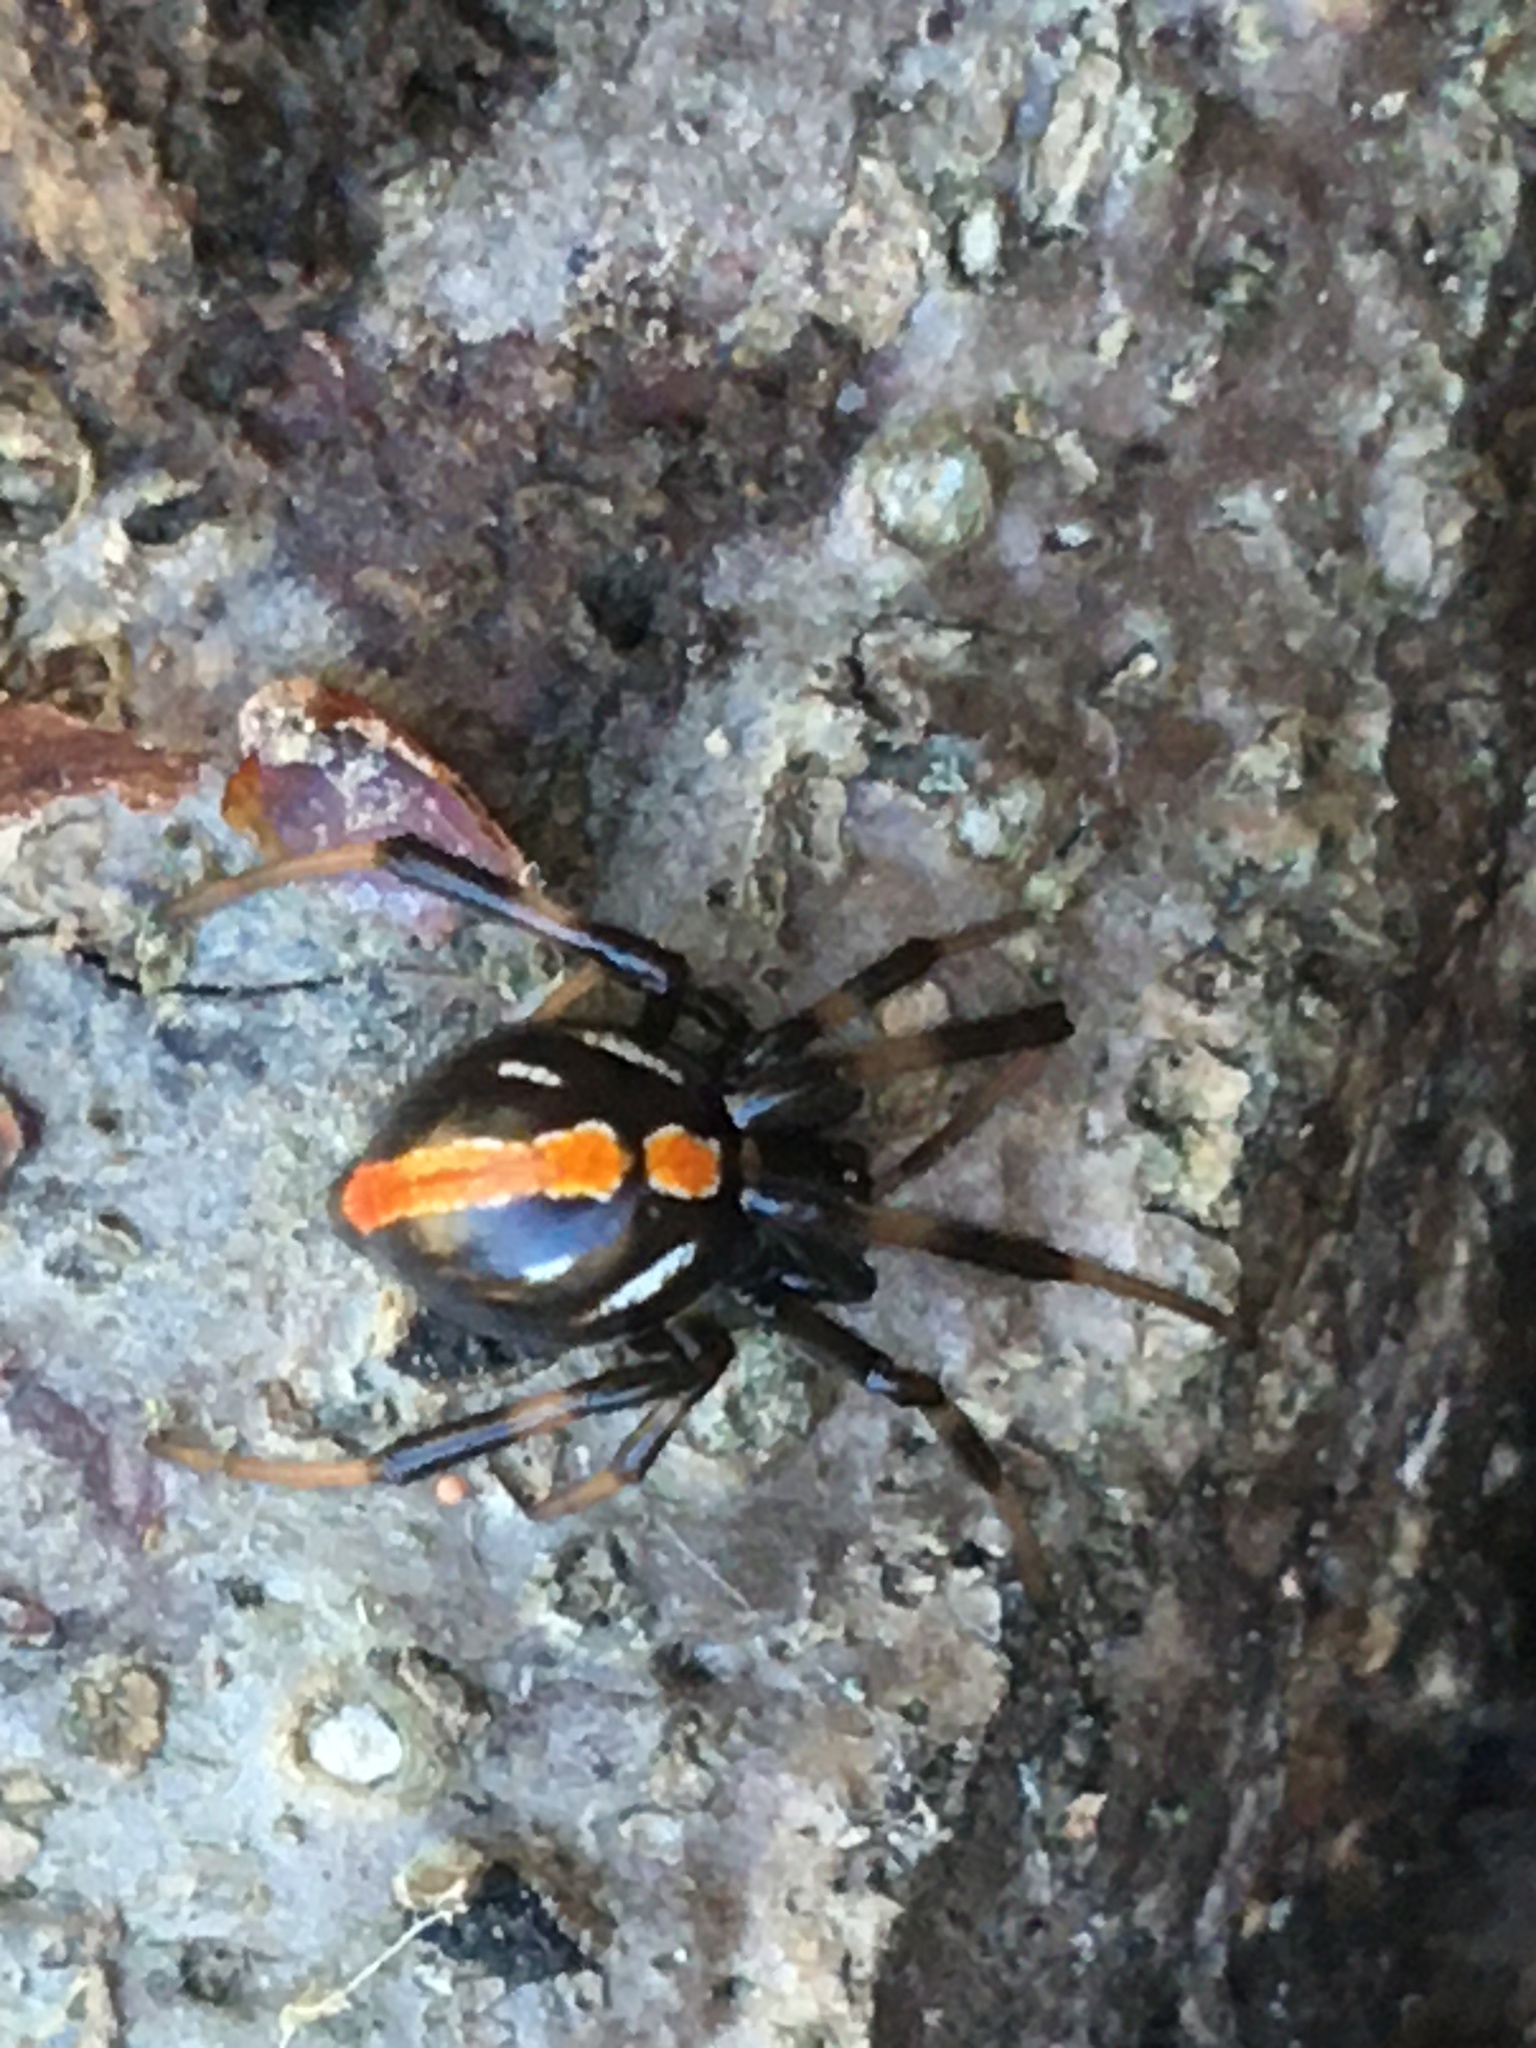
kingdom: Animalia
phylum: Arthropoda
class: Arachnida
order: Araneae
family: Theridiidae
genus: Latrodectus
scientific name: Latrodectus variolus
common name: Northern black widow
